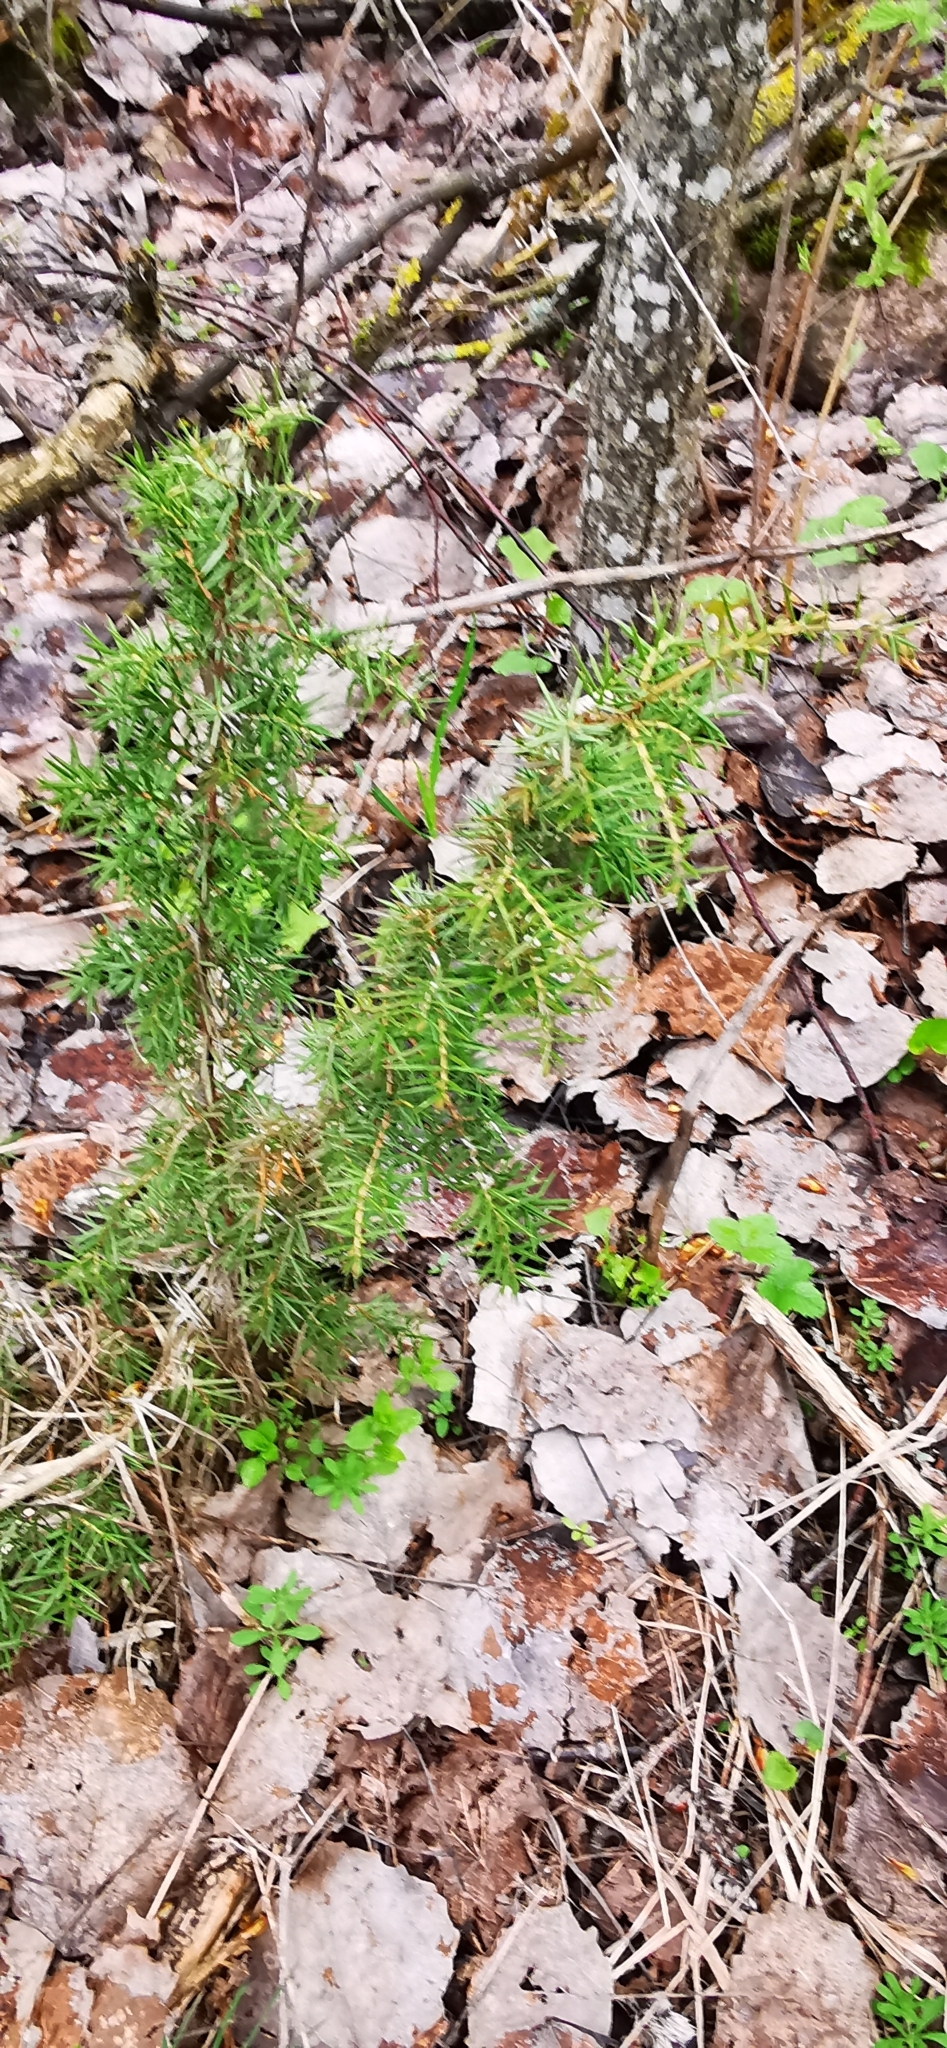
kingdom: Plantae
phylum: Tracheophyta
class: Pinopsida
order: Pinales
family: Cupressaceae
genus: Juniperus
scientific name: Juniperus communis
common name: Common juniper
